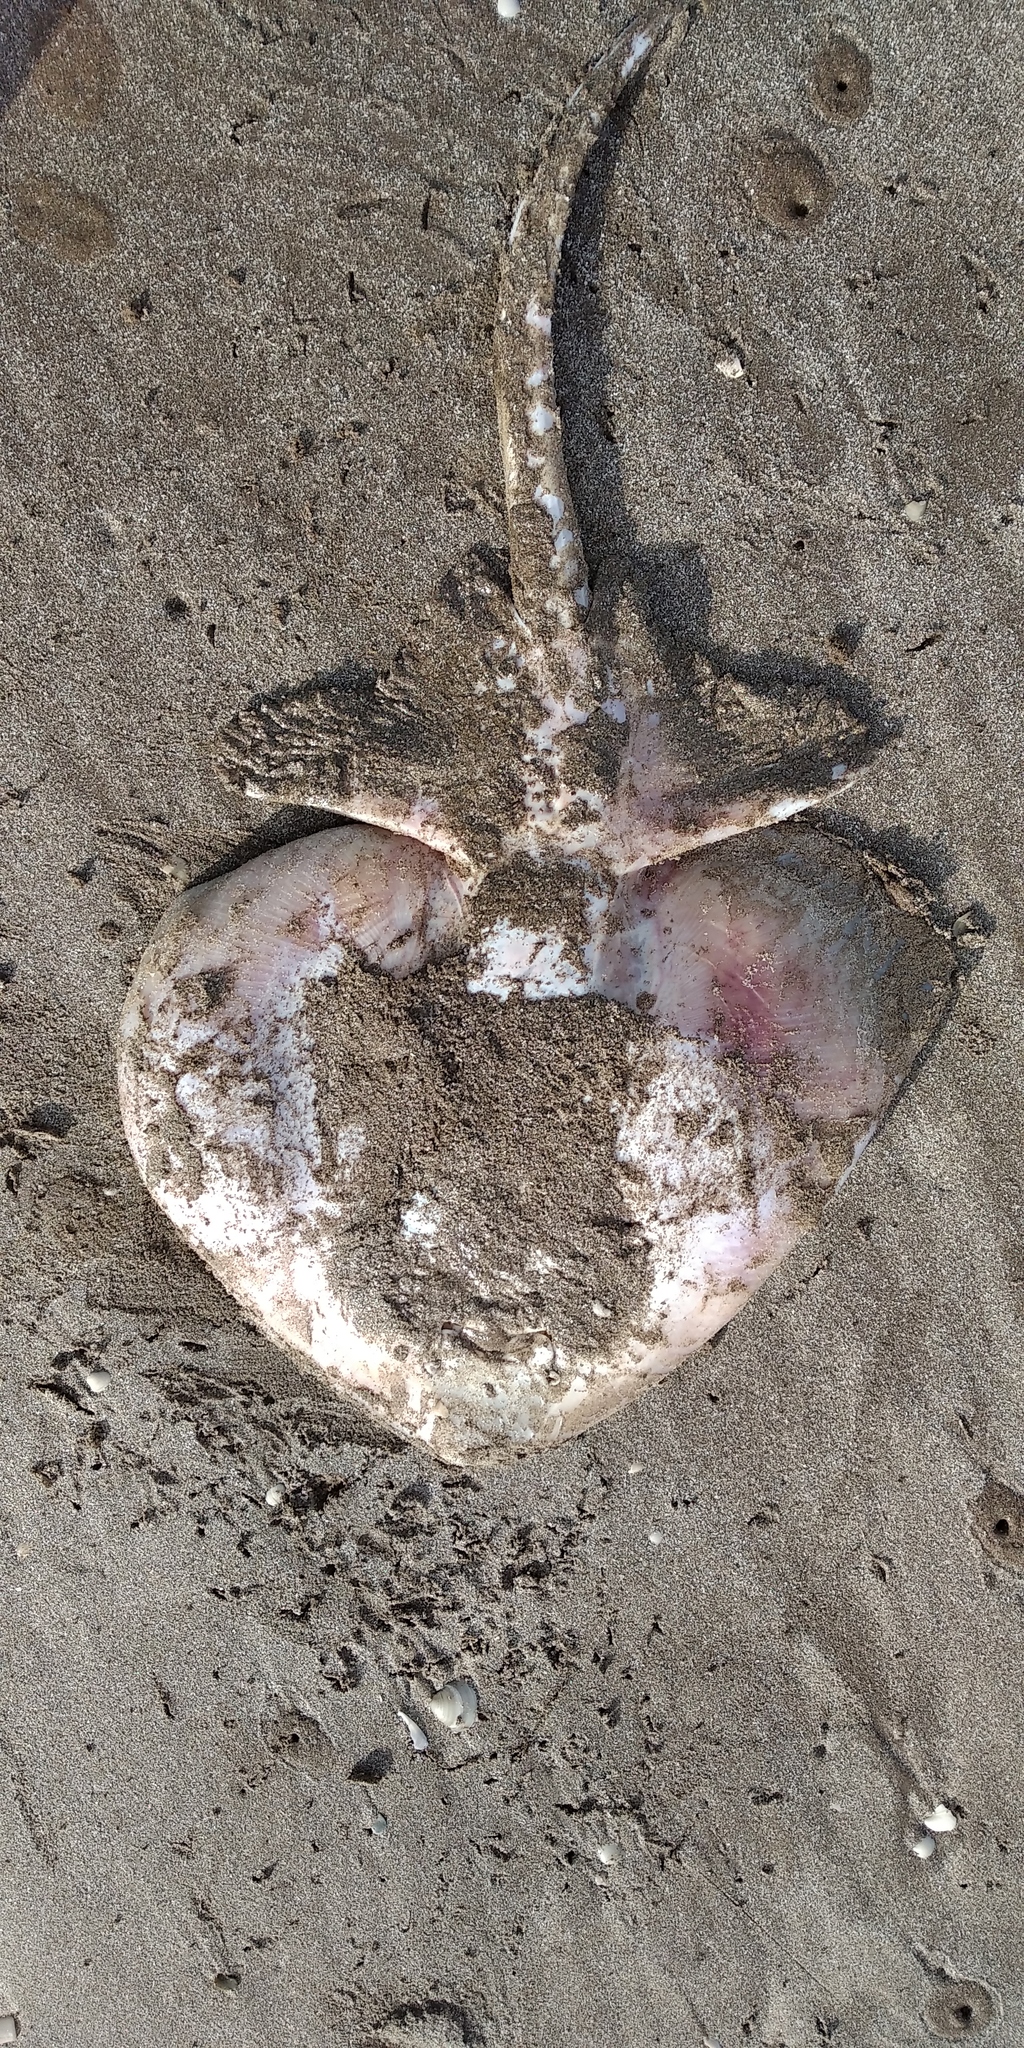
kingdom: Animalia
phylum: Chordata
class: Elasmobranchii
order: Rajiformes
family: Arhynchobatidae
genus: Sympterygia
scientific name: Sympterygia bonapartii
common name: Smallnose fanskate
